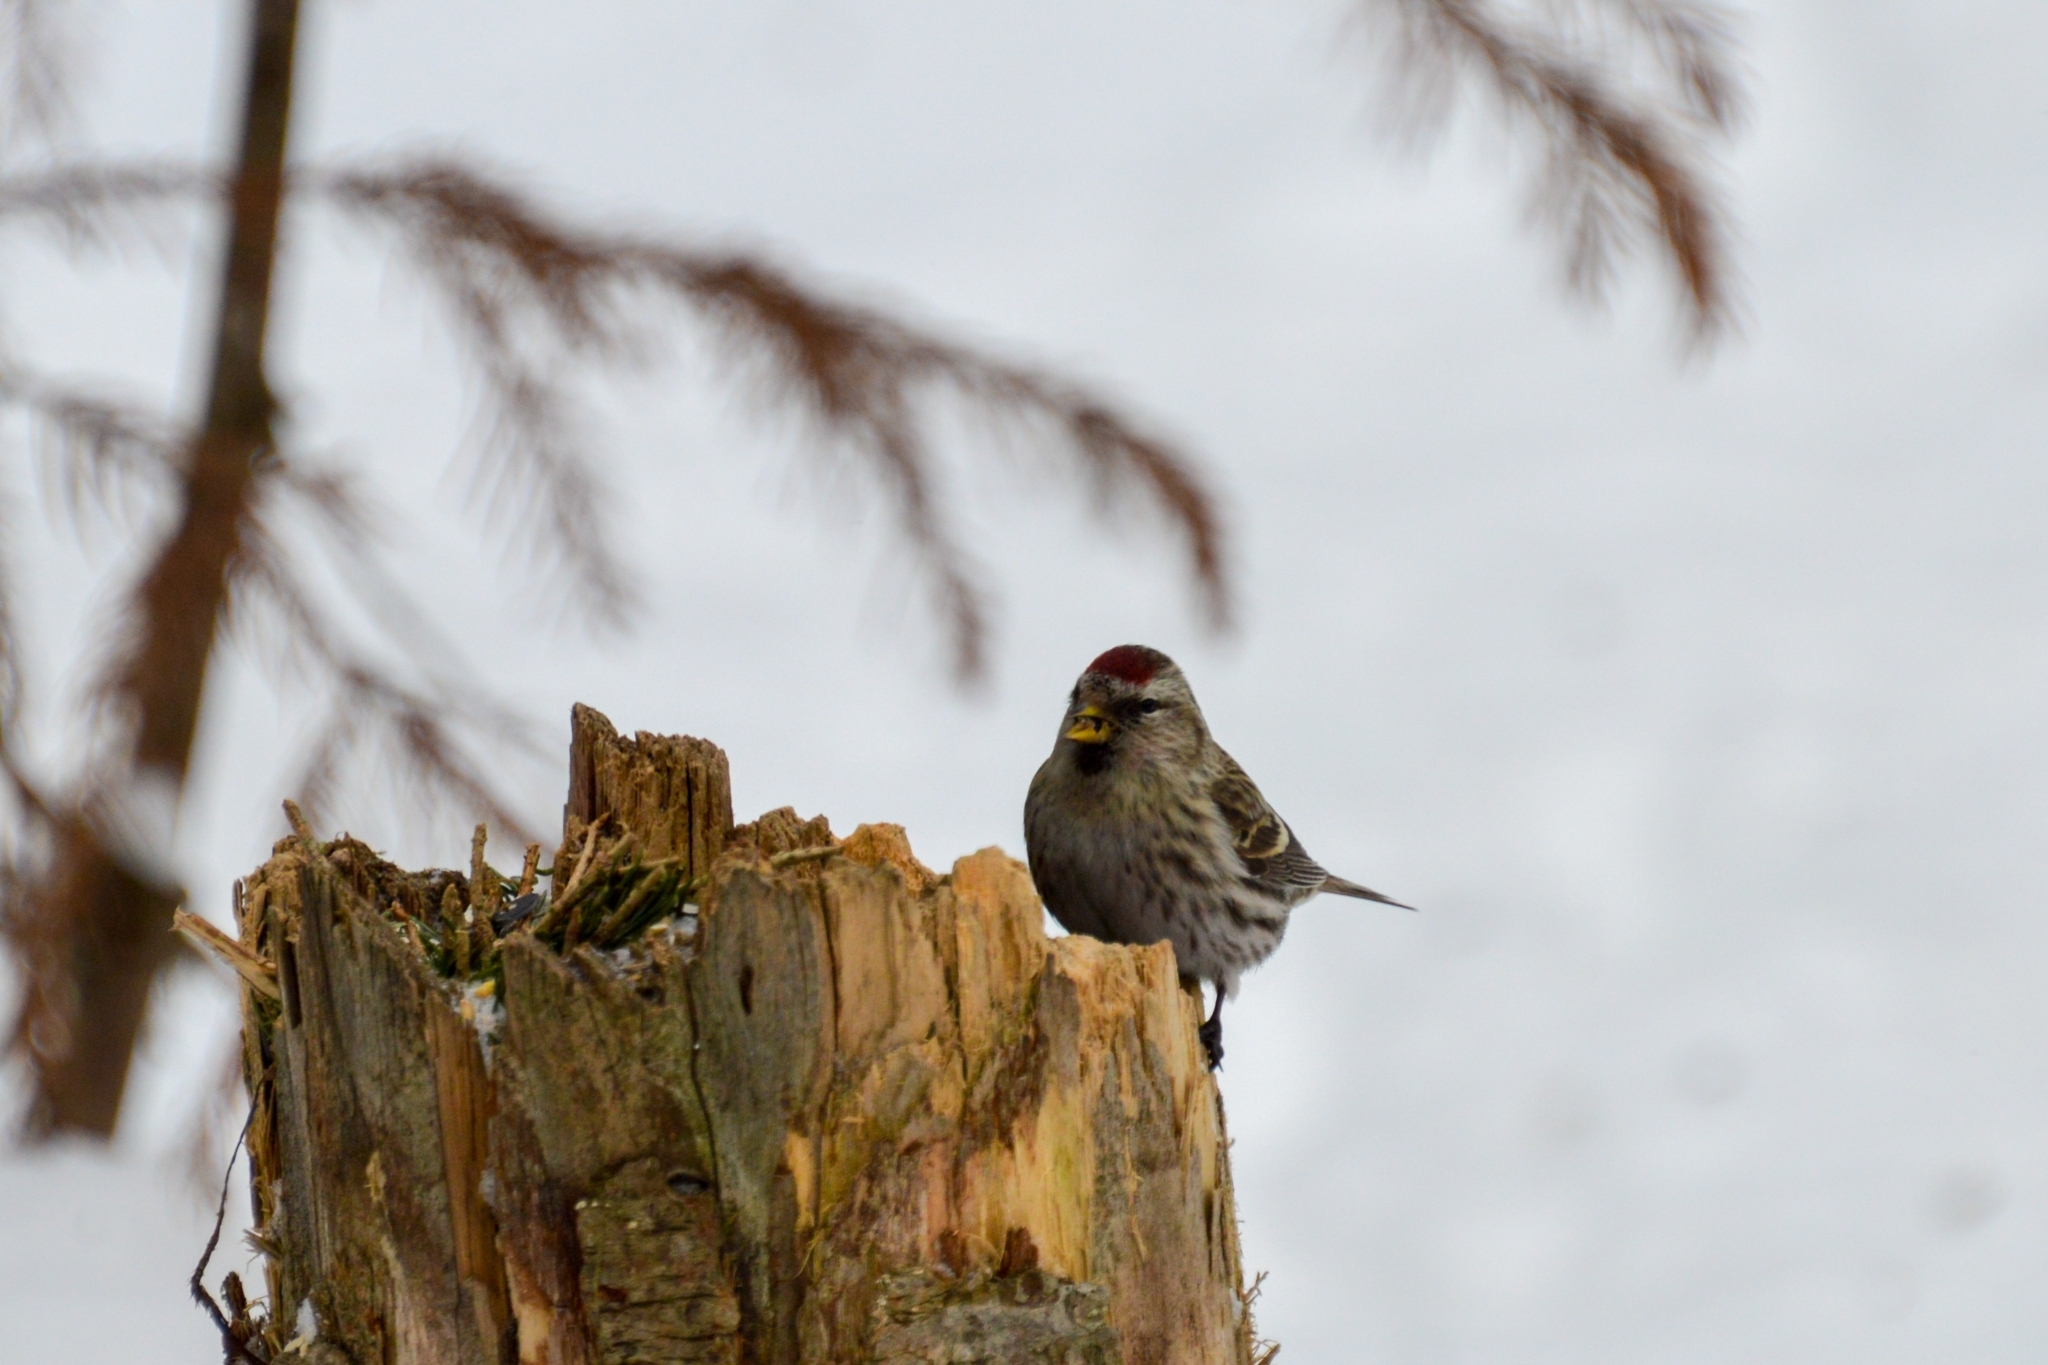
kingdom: Animalia
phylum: Chordata
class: Aves
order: Passeriformes
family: Fringillidae
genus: Acanthis
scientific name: Acanthis flammea
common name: Common redpoll
